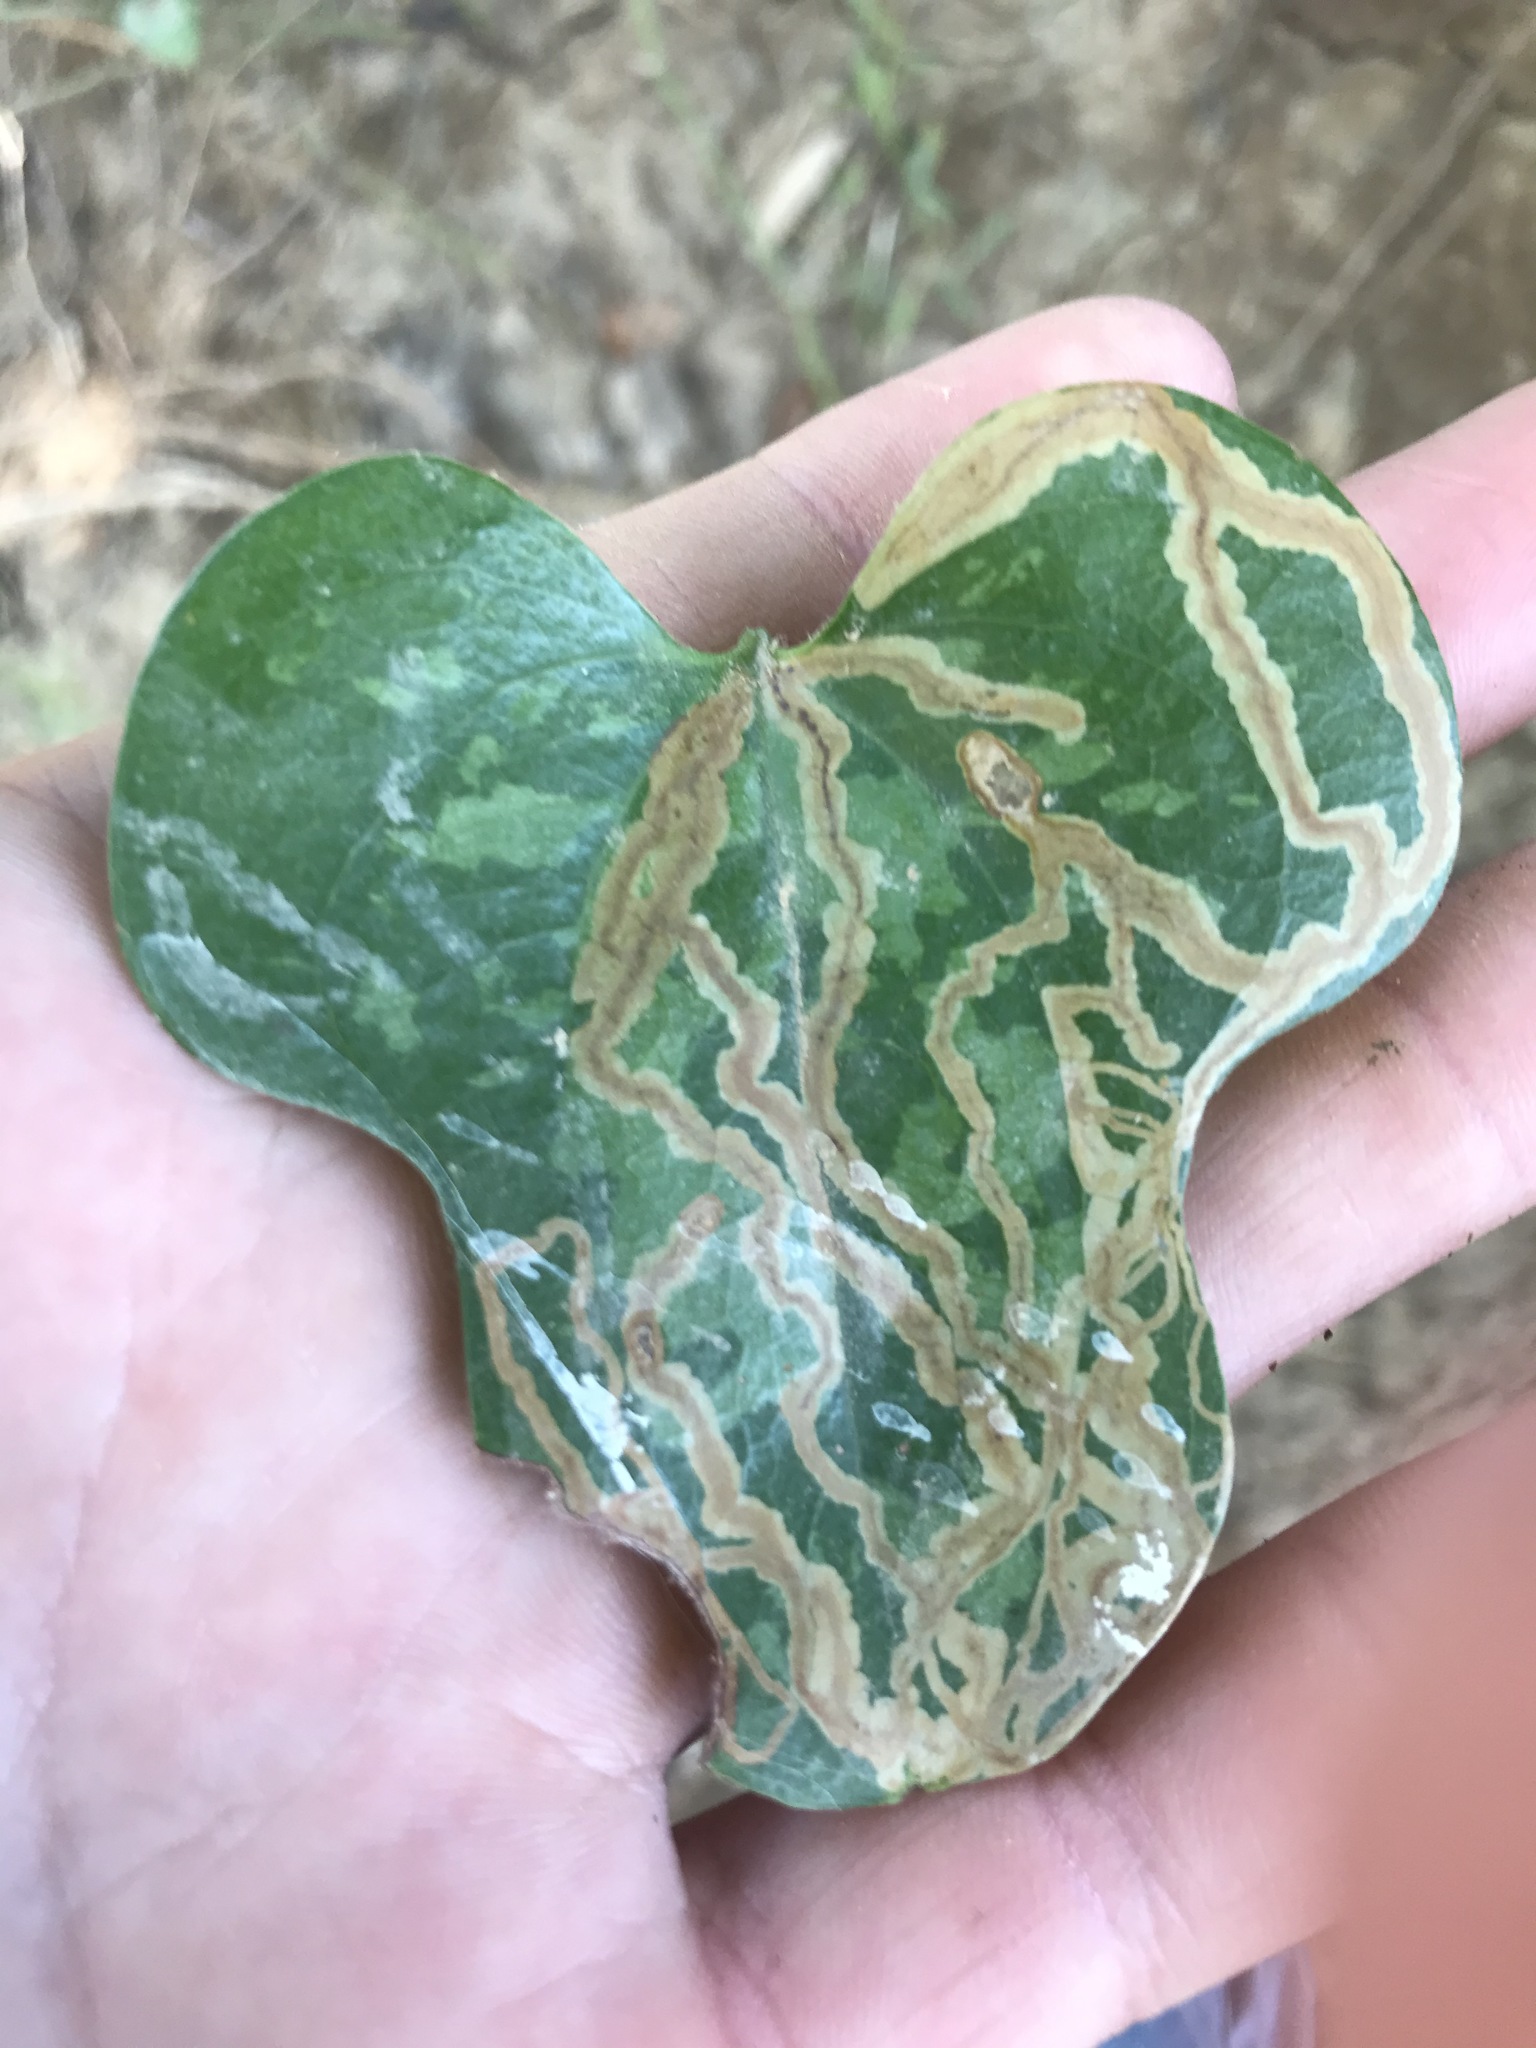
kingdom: Animalia
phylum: Arthropoda
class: Insecta
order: Lepidoptera
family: Gracillariidae
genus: Marmara
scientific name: Marmara smilacisella
